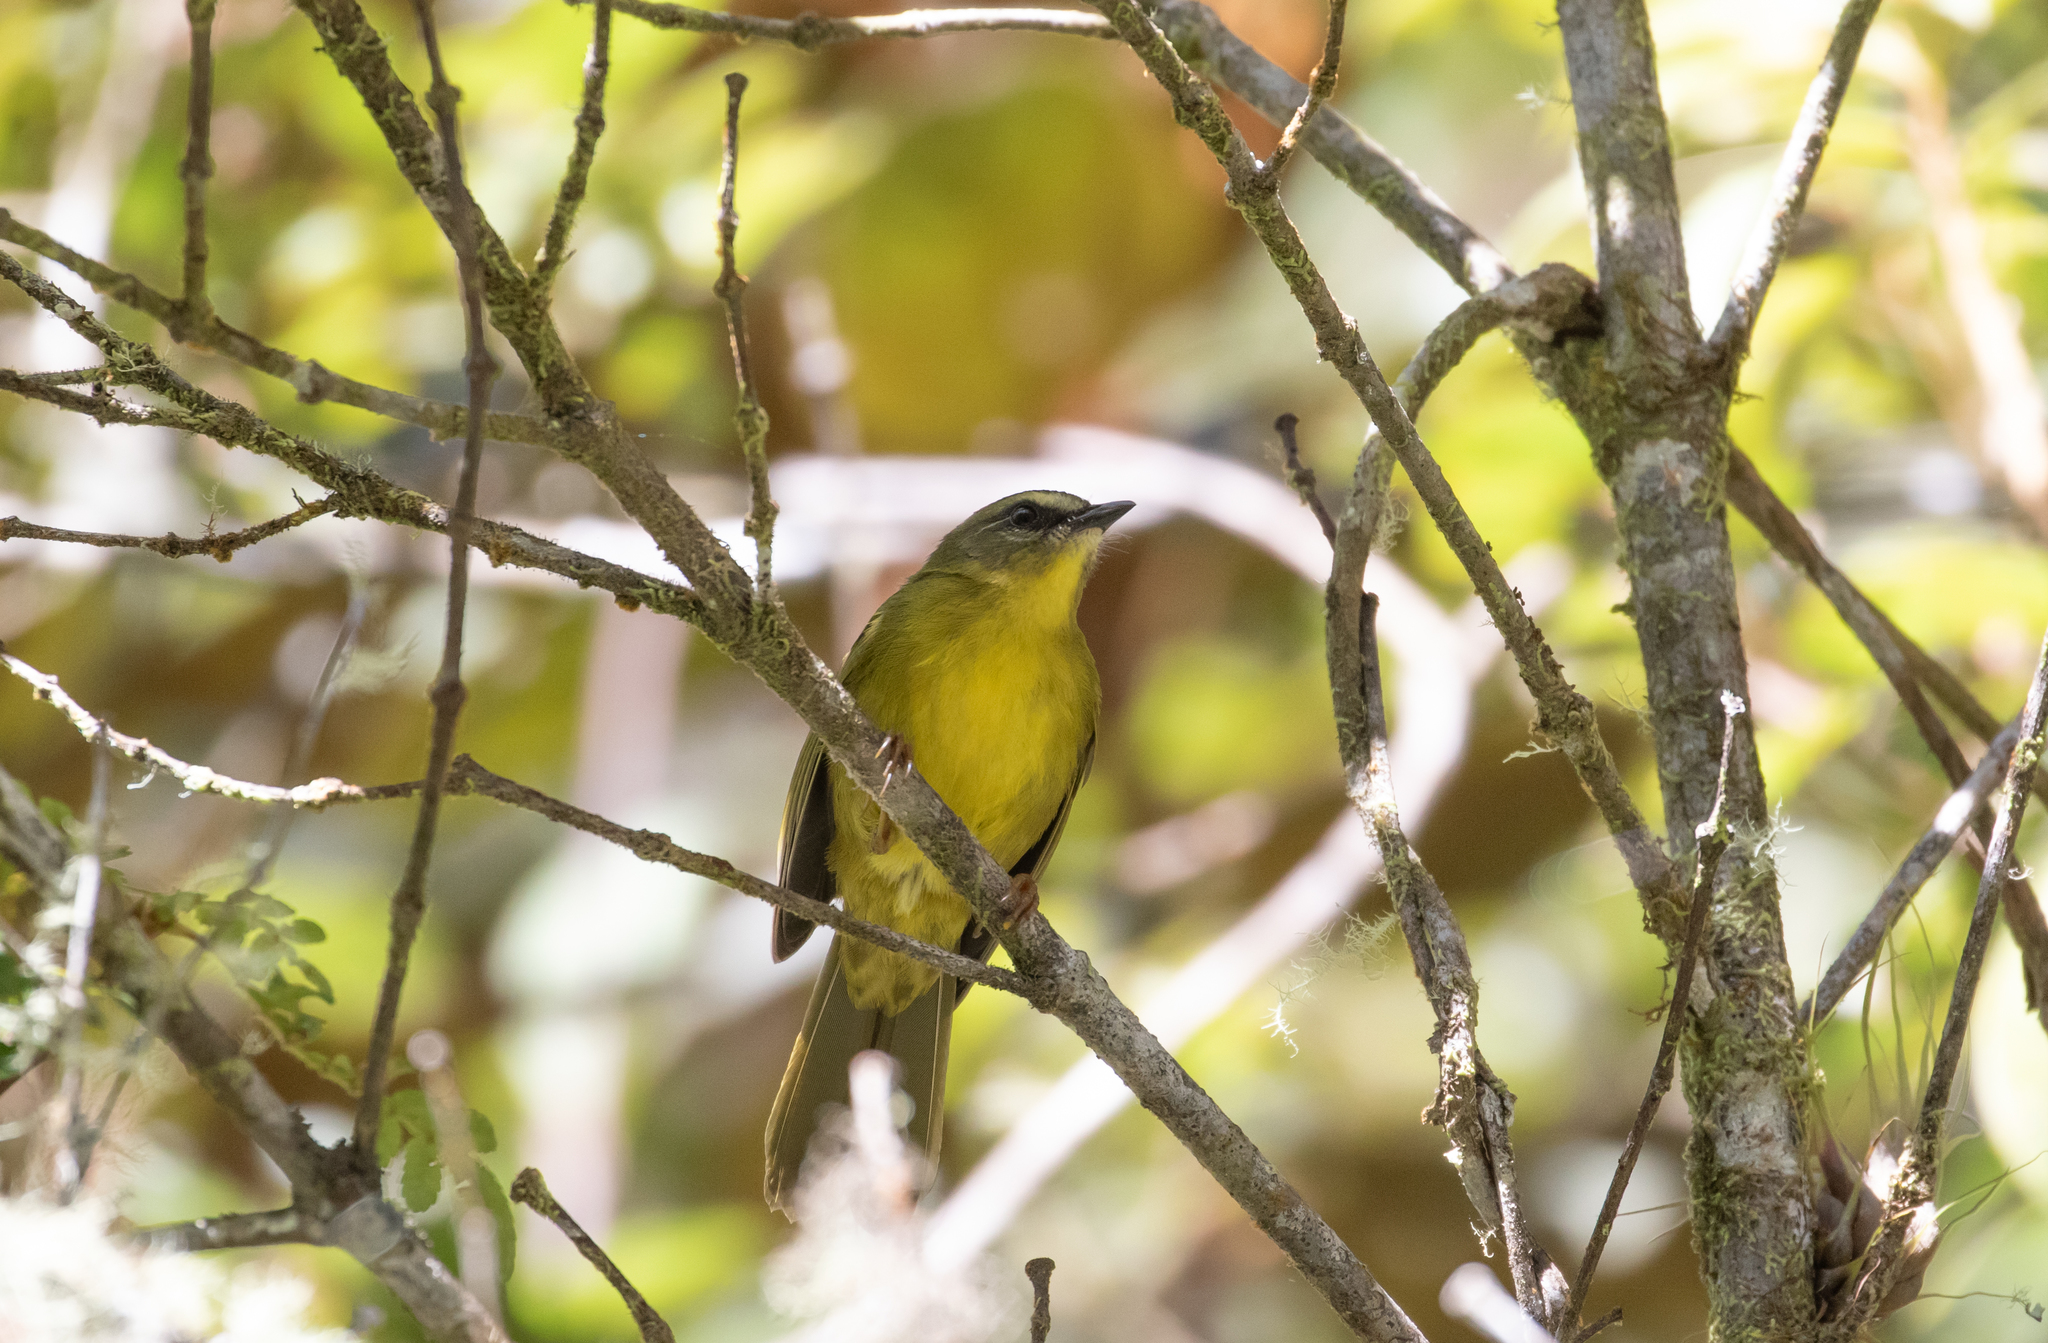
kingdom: Animalia
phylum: Chordata
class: Aves
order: Passeriformes
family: Parulidae
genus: Myiothlypis
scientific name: Myiothlypis luteoviridis
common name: Citrine warbler
